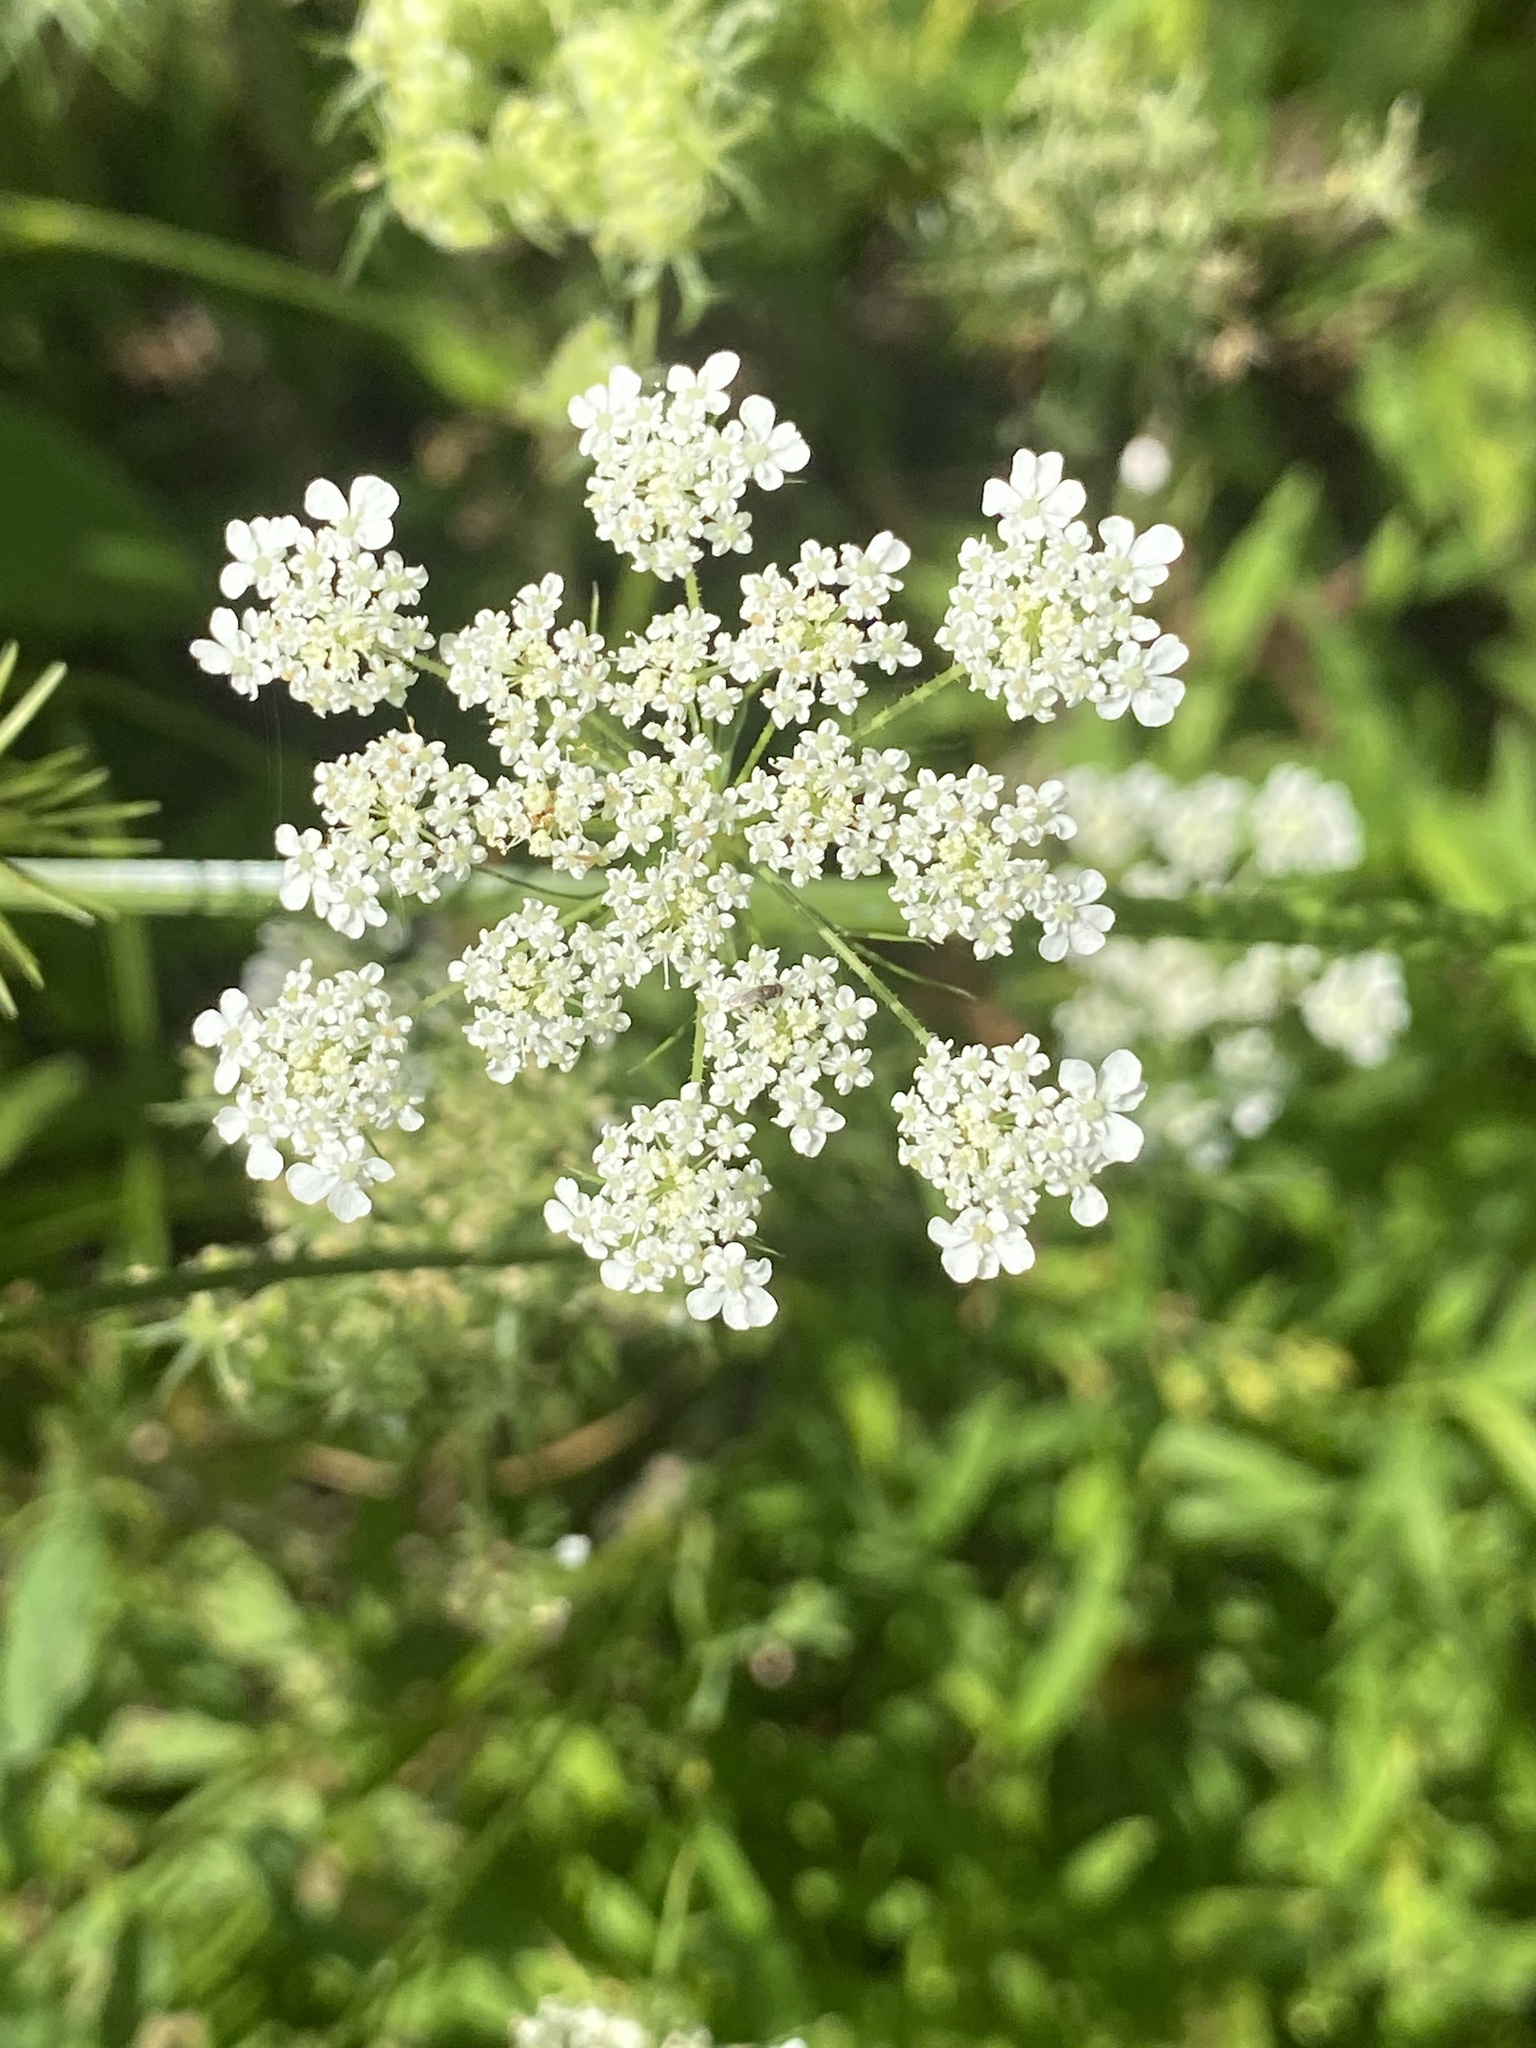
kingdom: Plantae
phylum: Tracheophyta
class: Magnoliopsida
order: Apiales
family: Apiaceae
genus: Daucus
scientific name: Daucus carota
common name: Wild carrot
